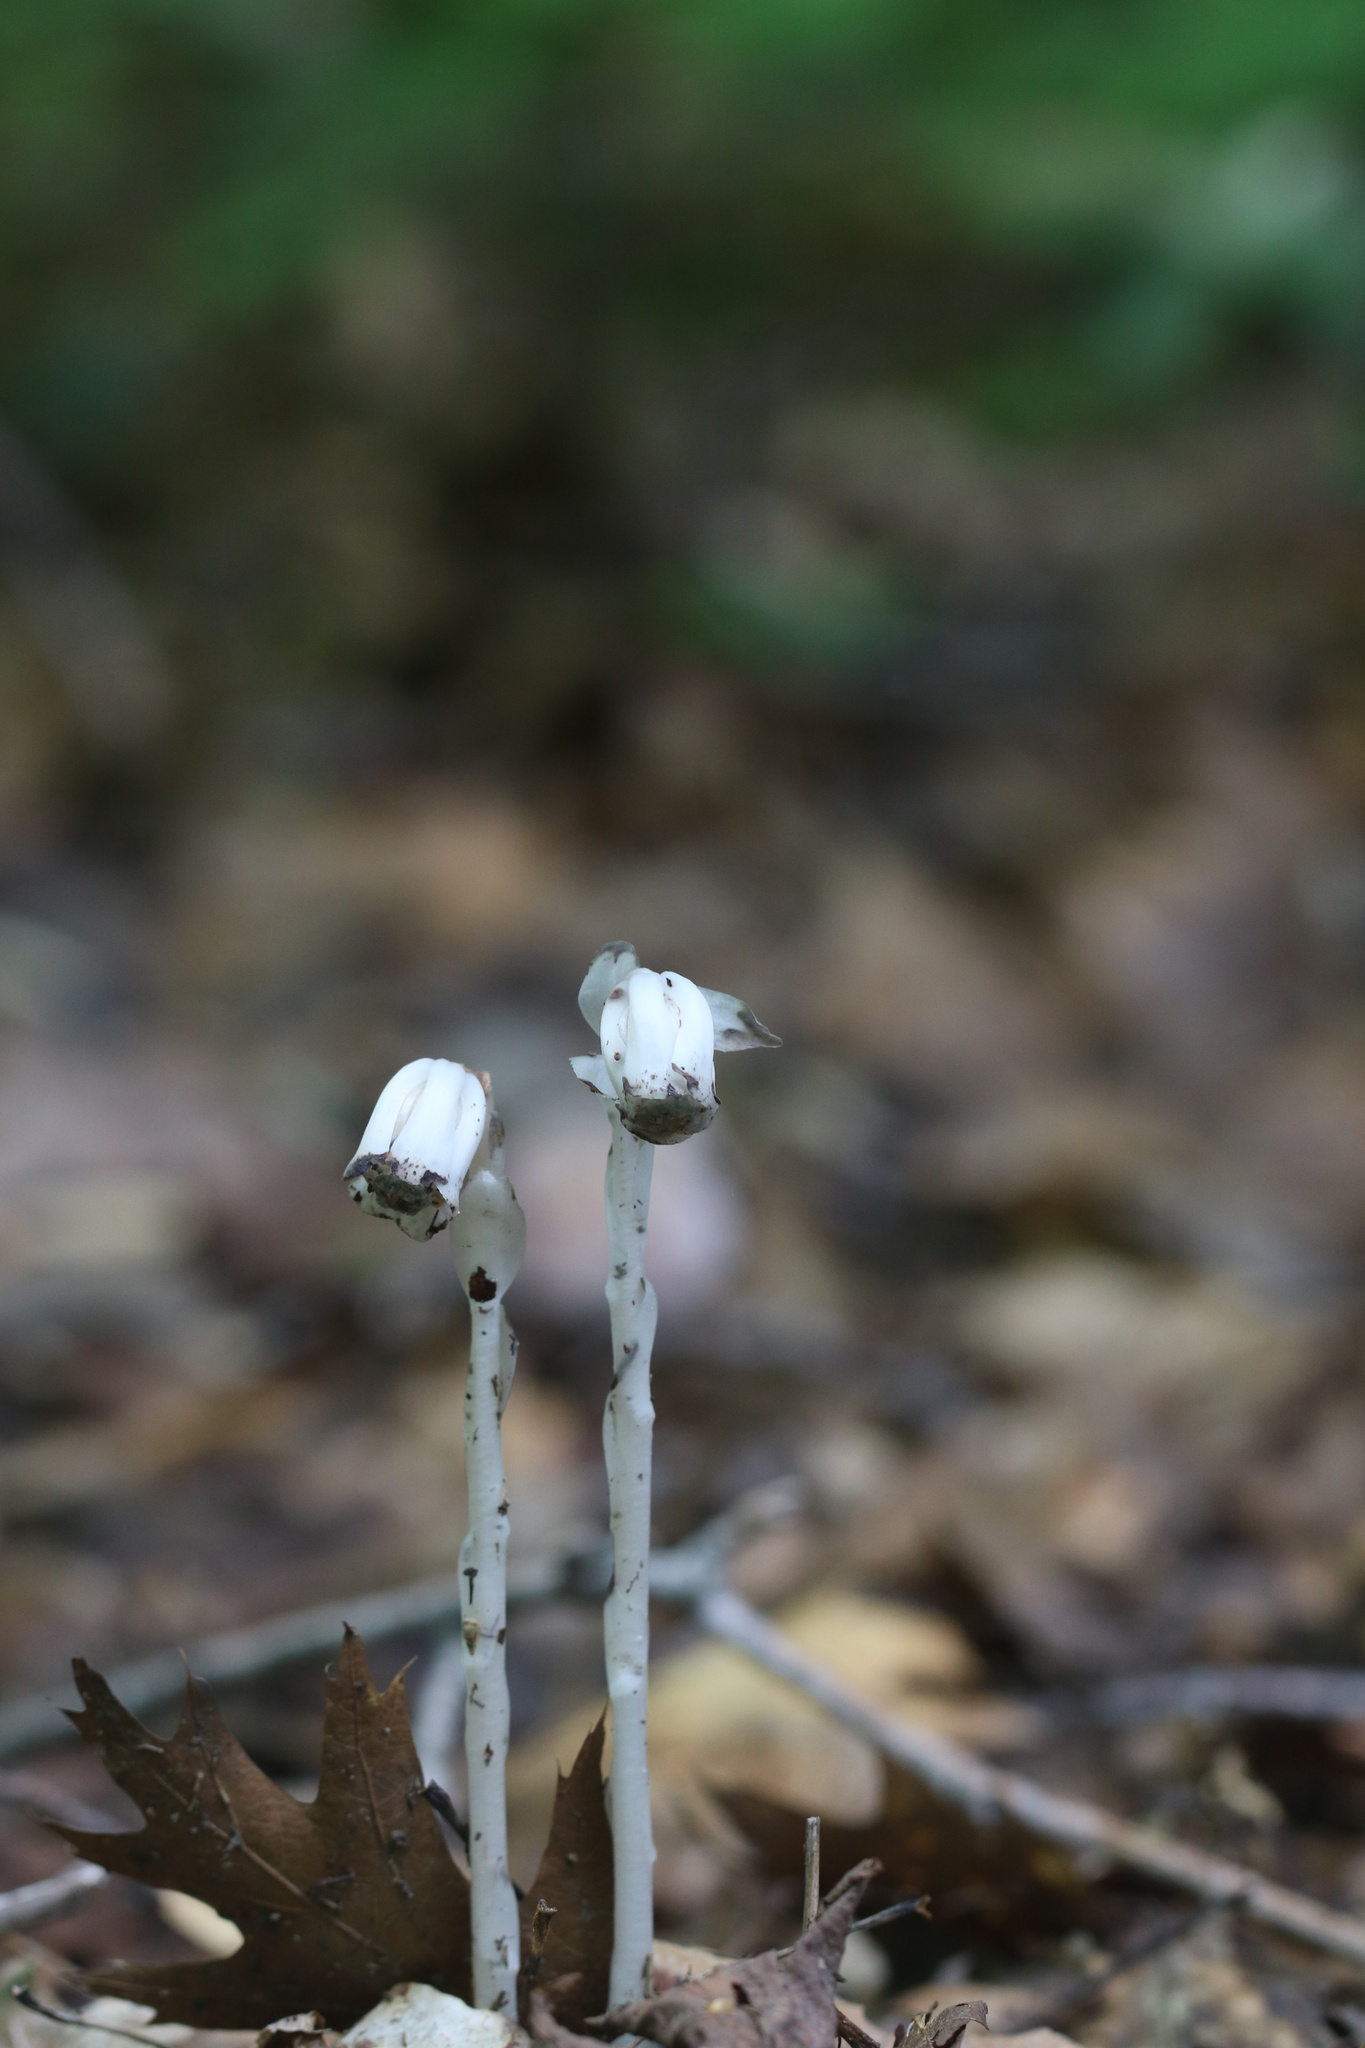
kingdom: Plantae
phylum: Tracheophyta
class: Magnoliopsida
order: Ericales
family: Ericaceae
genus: Monotropa
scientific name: Monotropa uniflora
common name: Convulsion root
